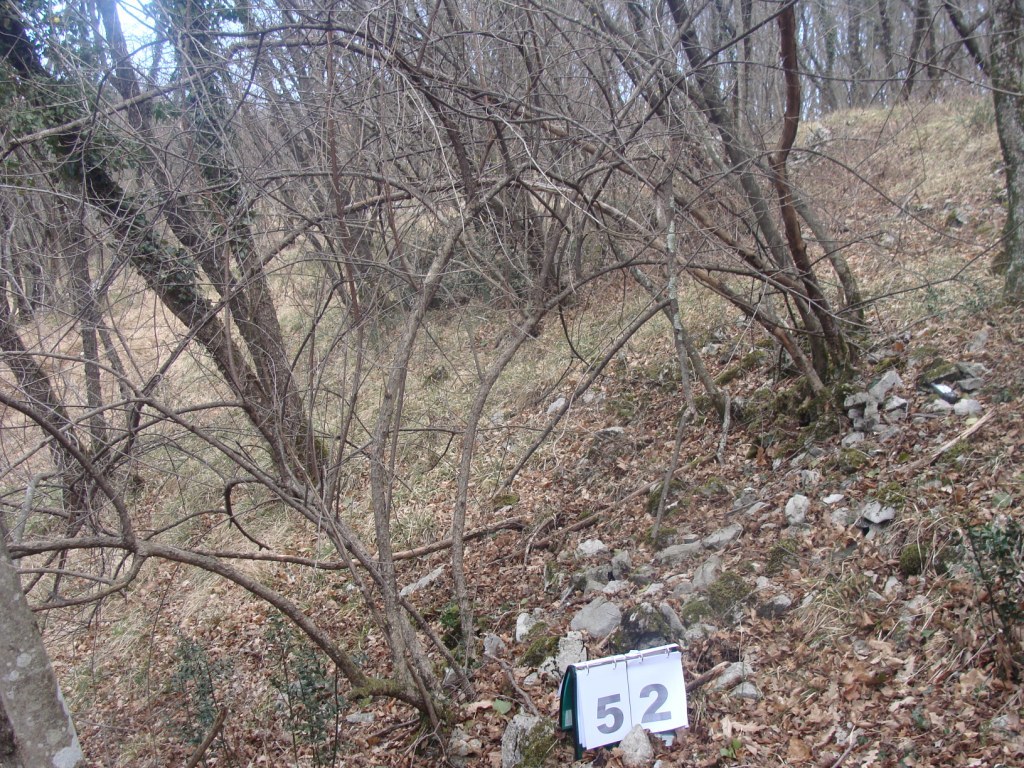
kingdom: Plantae
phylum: Tracheophyta
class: Magnoliopsida
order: Cornales
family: Cornaceae
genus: Cornus
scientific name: Cornus mas
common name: Cornelian-cherry
